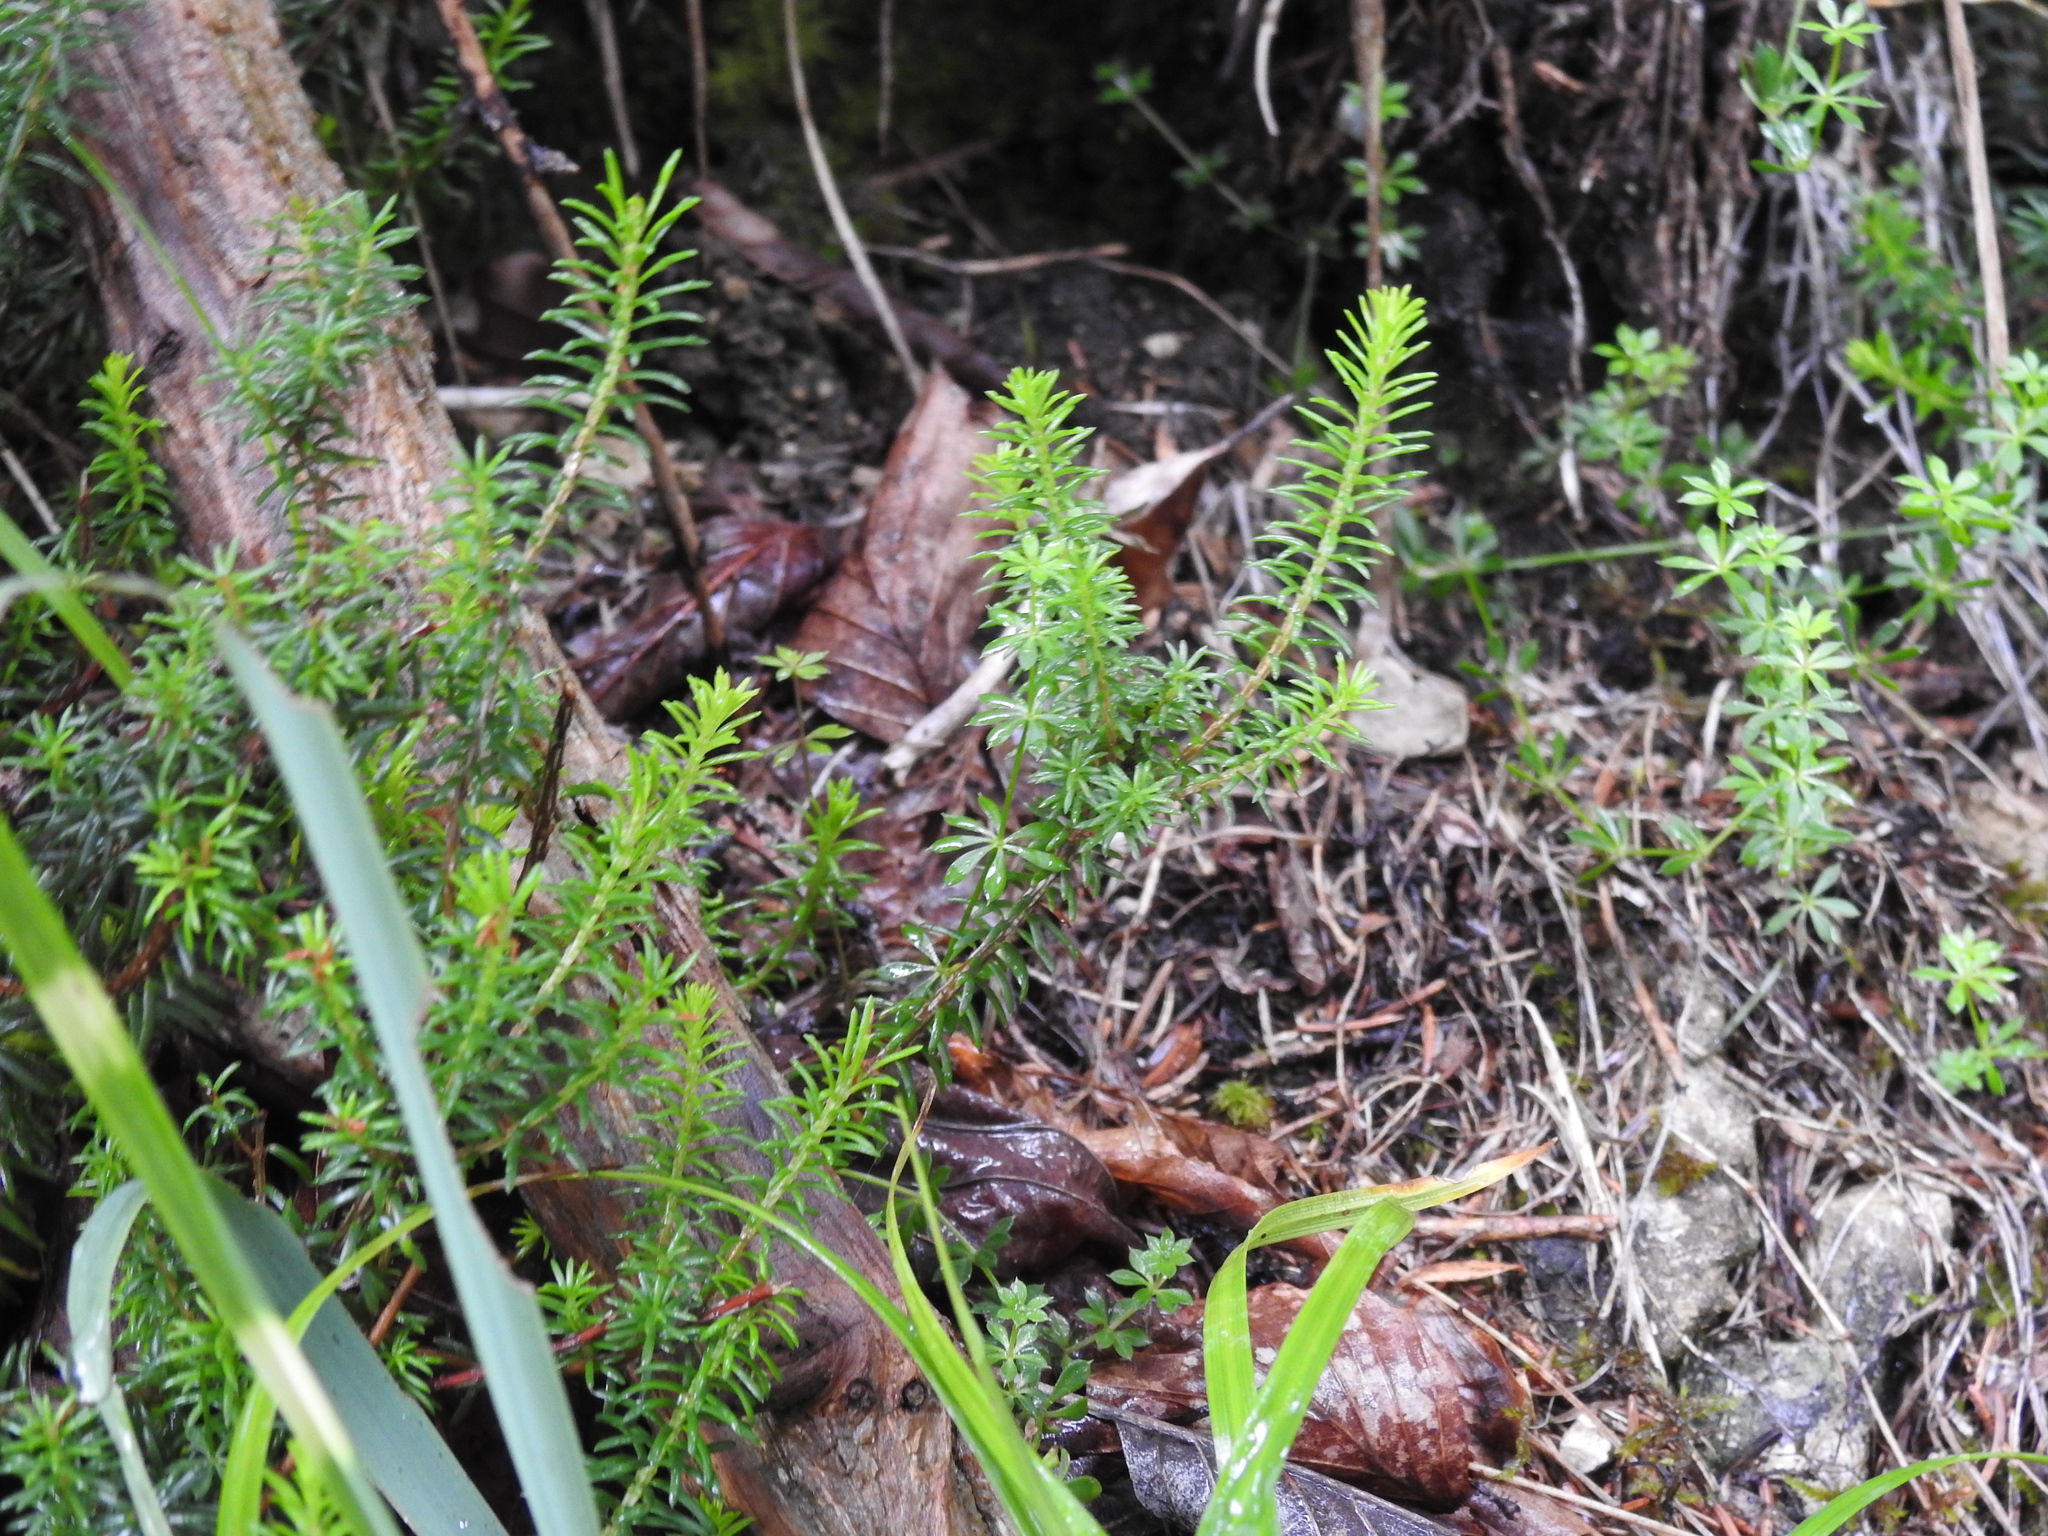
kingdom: Plantae
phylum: Tracheophyta
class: Magnoliopsida
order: Ericales
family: Ericaceae
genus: Erica
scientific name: Erica carnea
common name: Winter heath
